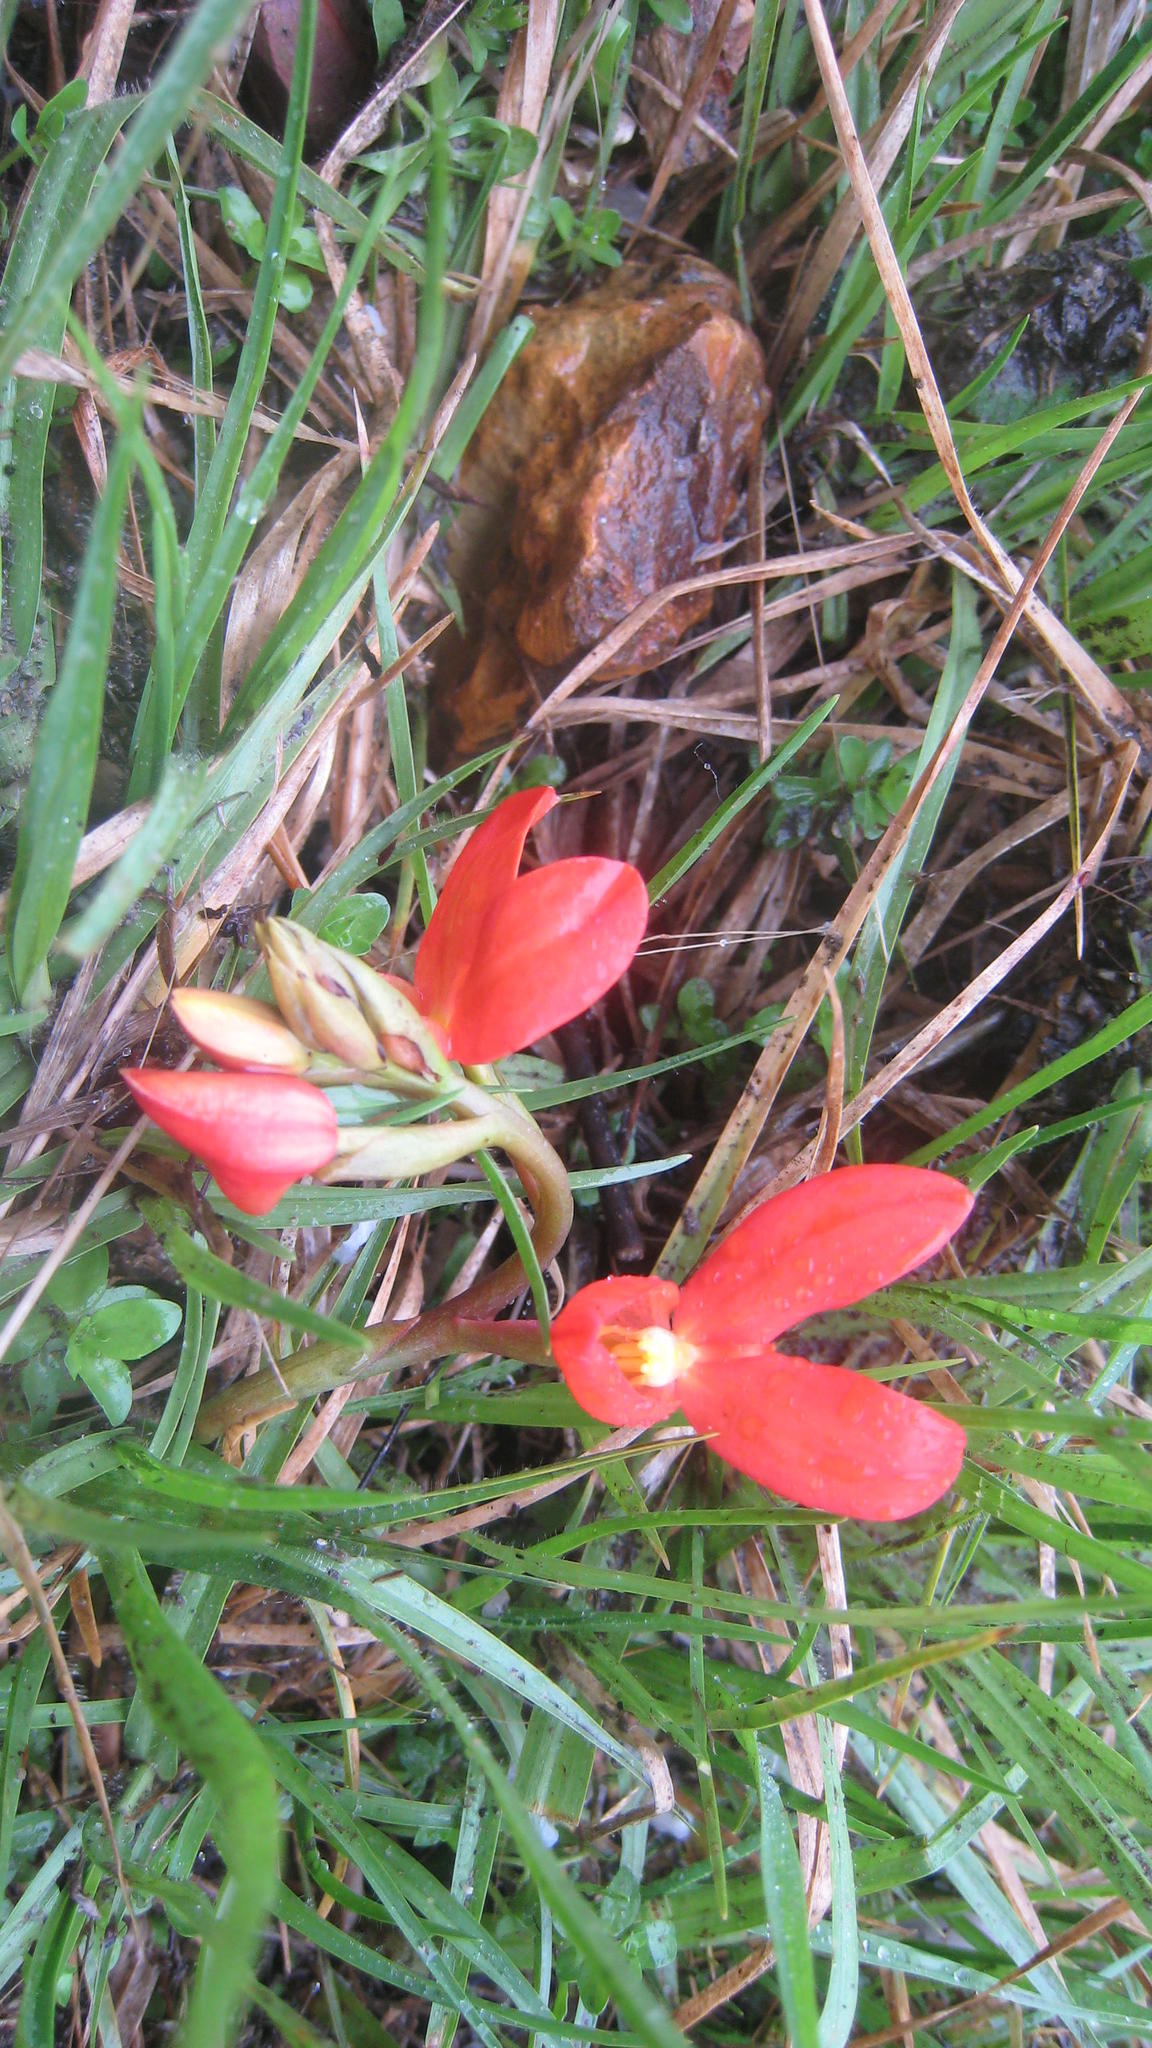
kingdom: Plantae
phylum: Tracheophyta
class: Liliopsida
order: Asparagales
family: Orchidaceae
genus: Disa
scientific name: Disa cardinalis
